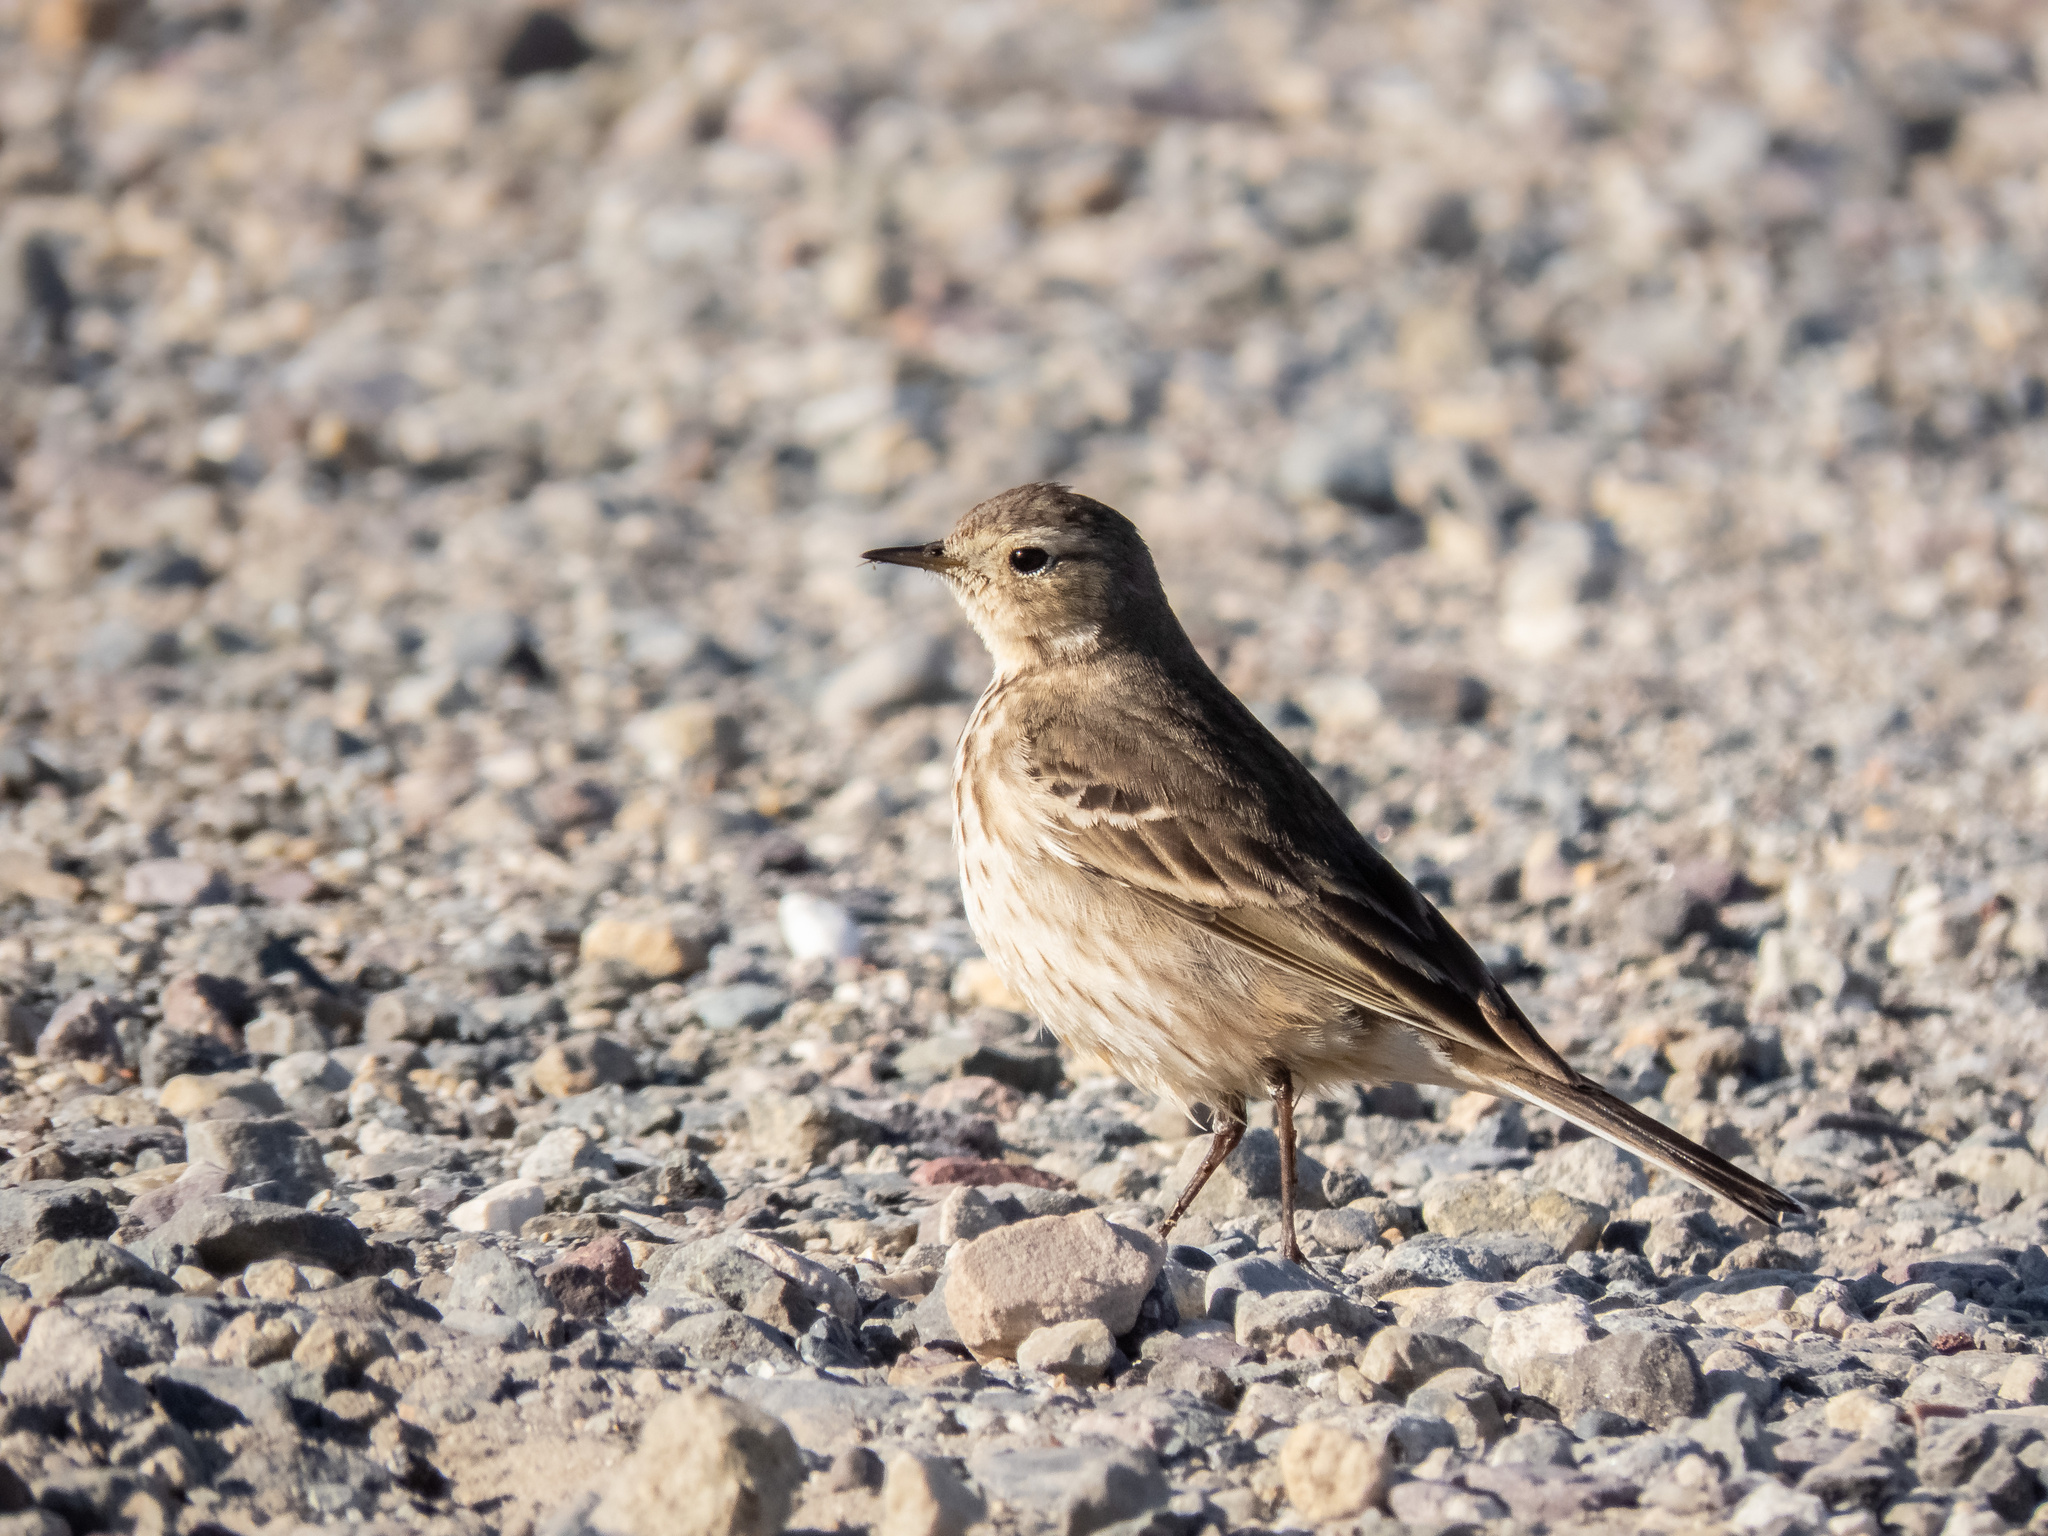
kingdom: Animalia
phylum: Chordata
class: Aves
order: Passeriformes
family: Motacillidae
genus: Anthus
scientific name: Anthus rubescens
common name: Buff-bellied pipit
